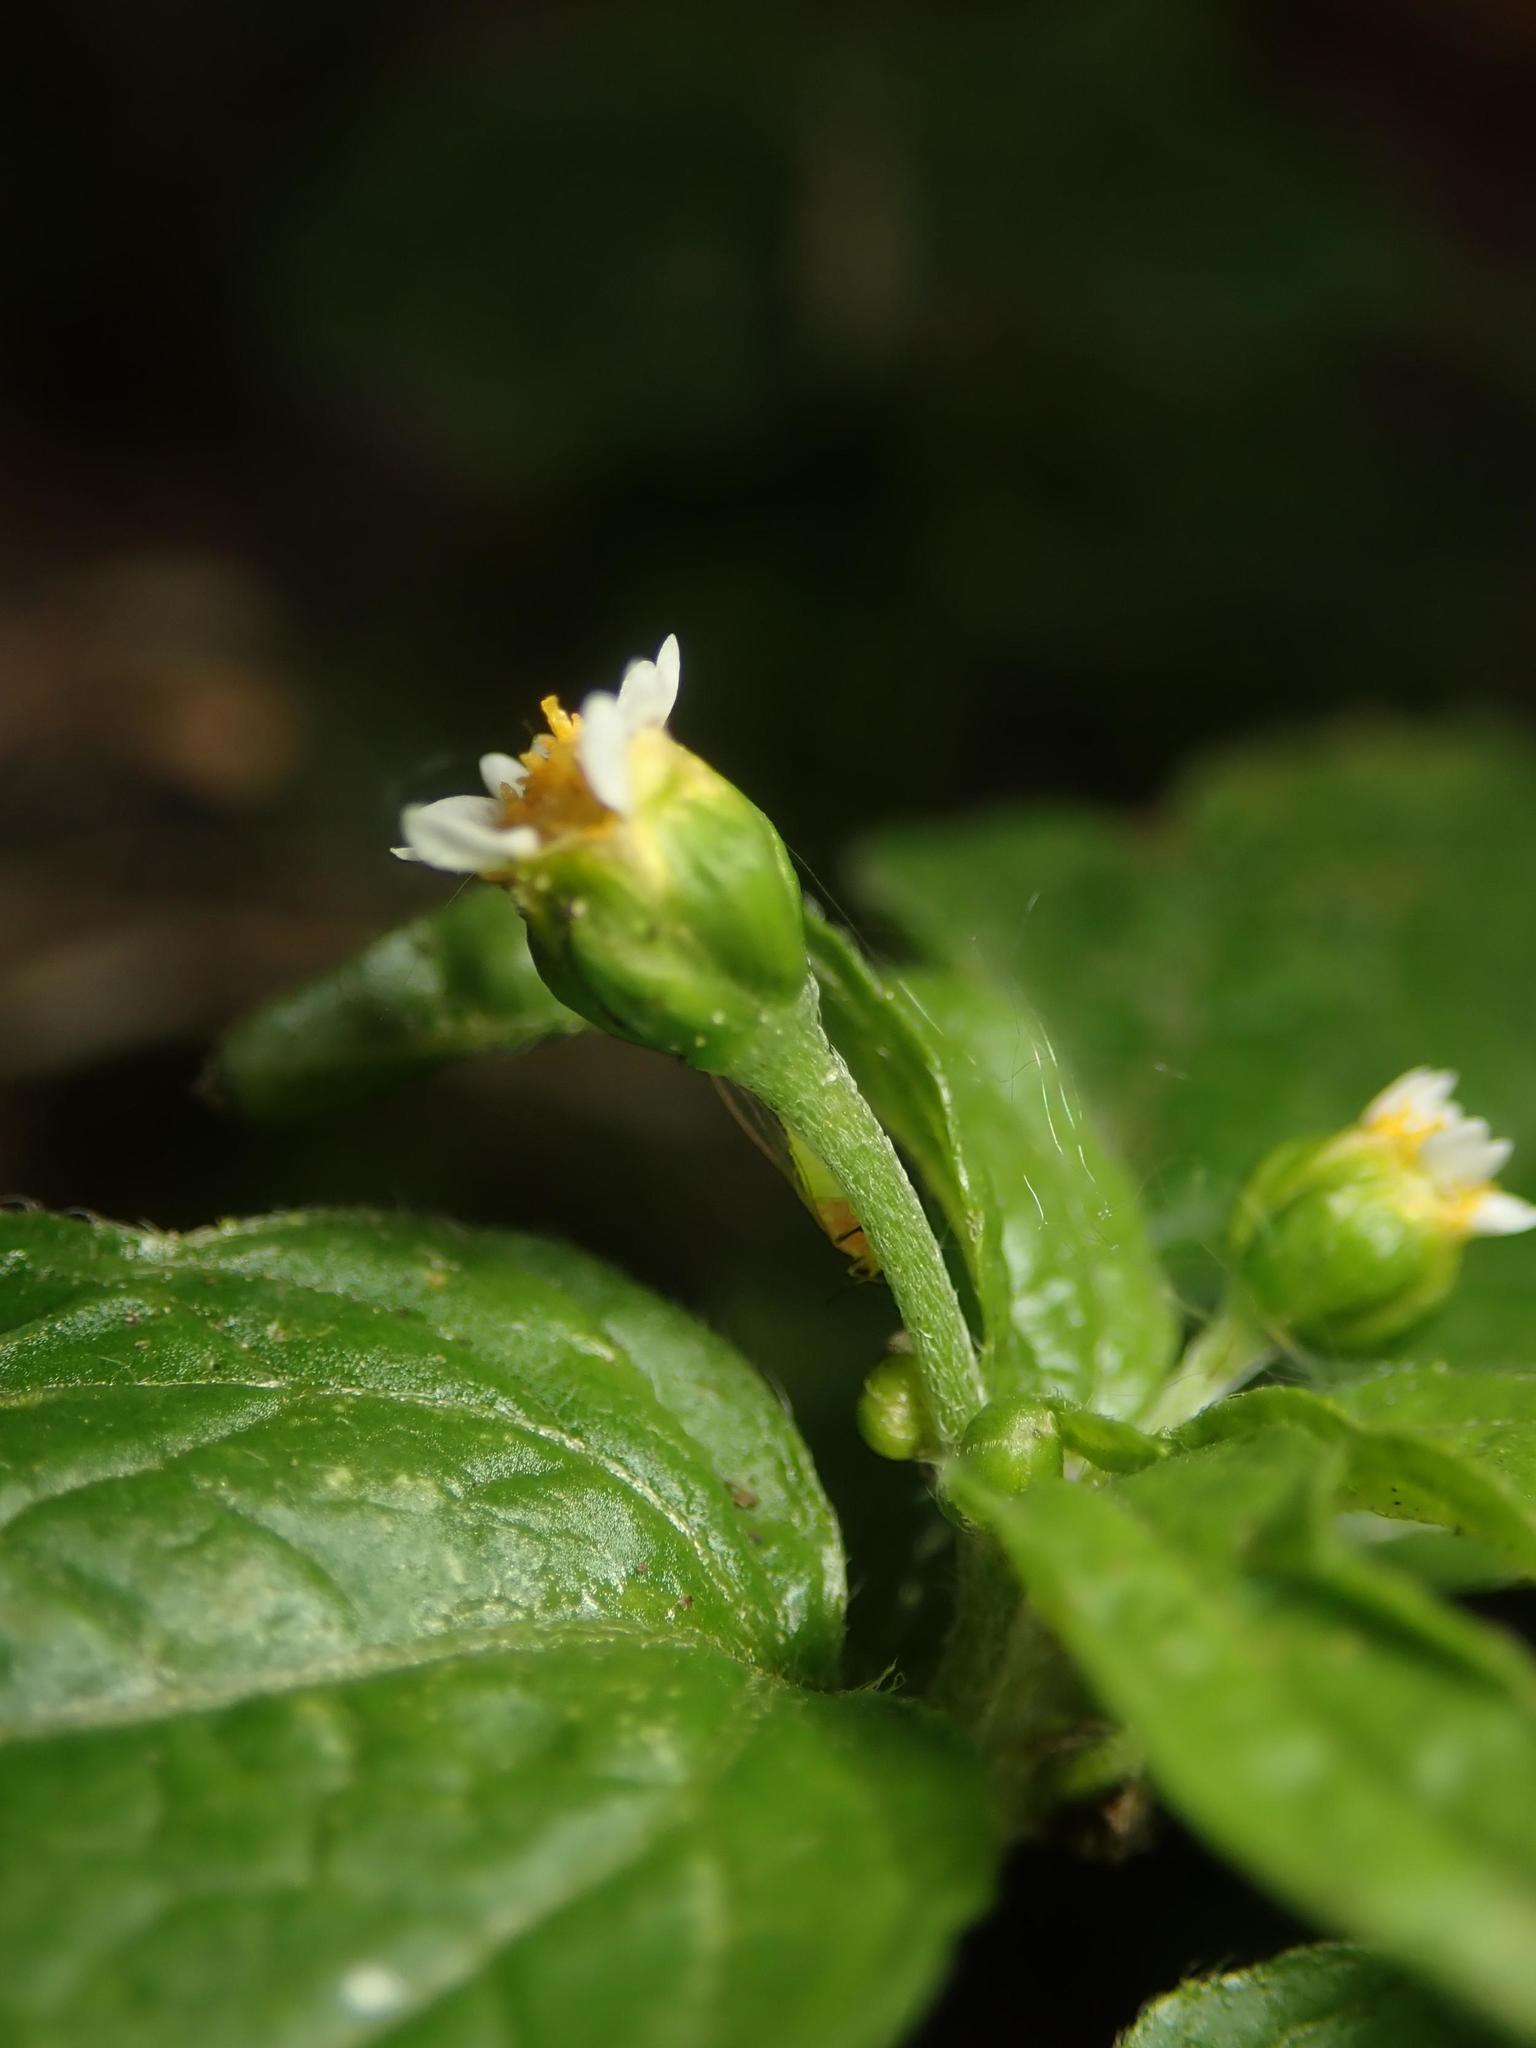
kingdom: Plantae
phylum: Tracheophyta
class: Magnoliopsida
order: Asterales
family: Asteraceae
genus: Galinsoga
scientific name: Galinsoga parviflora
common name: Gallant soldier
